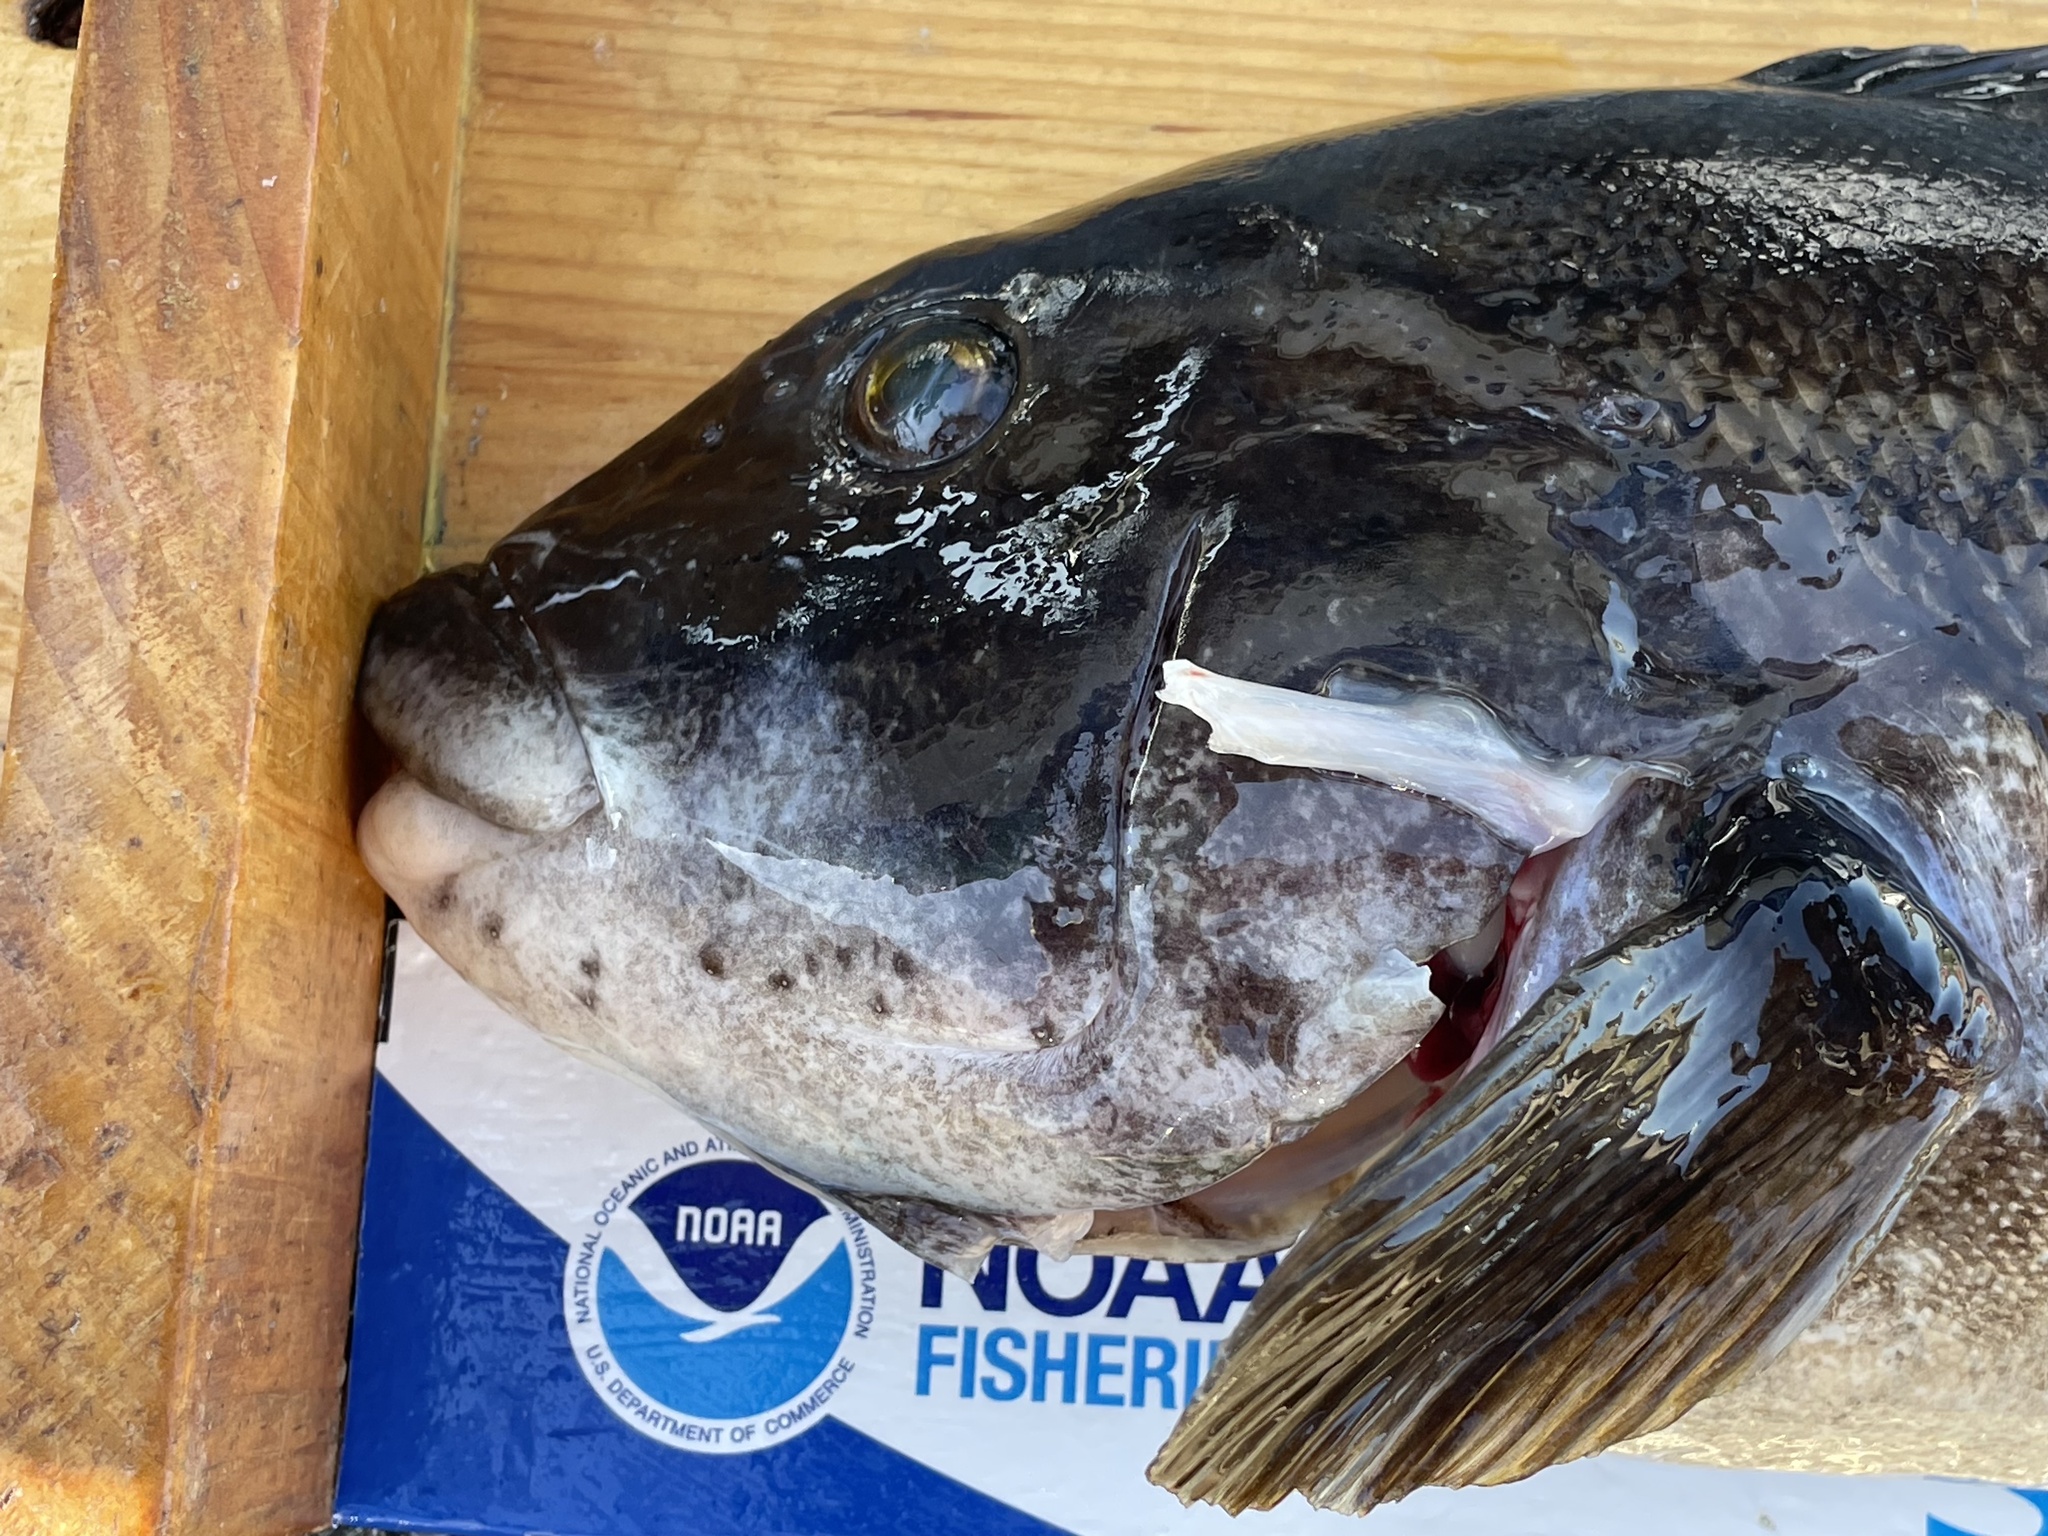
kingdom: Animalia
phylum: Chordata
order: Perciformes
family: Labridae
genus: Tautoga
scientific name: Tautoga onitis
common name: Tautog
